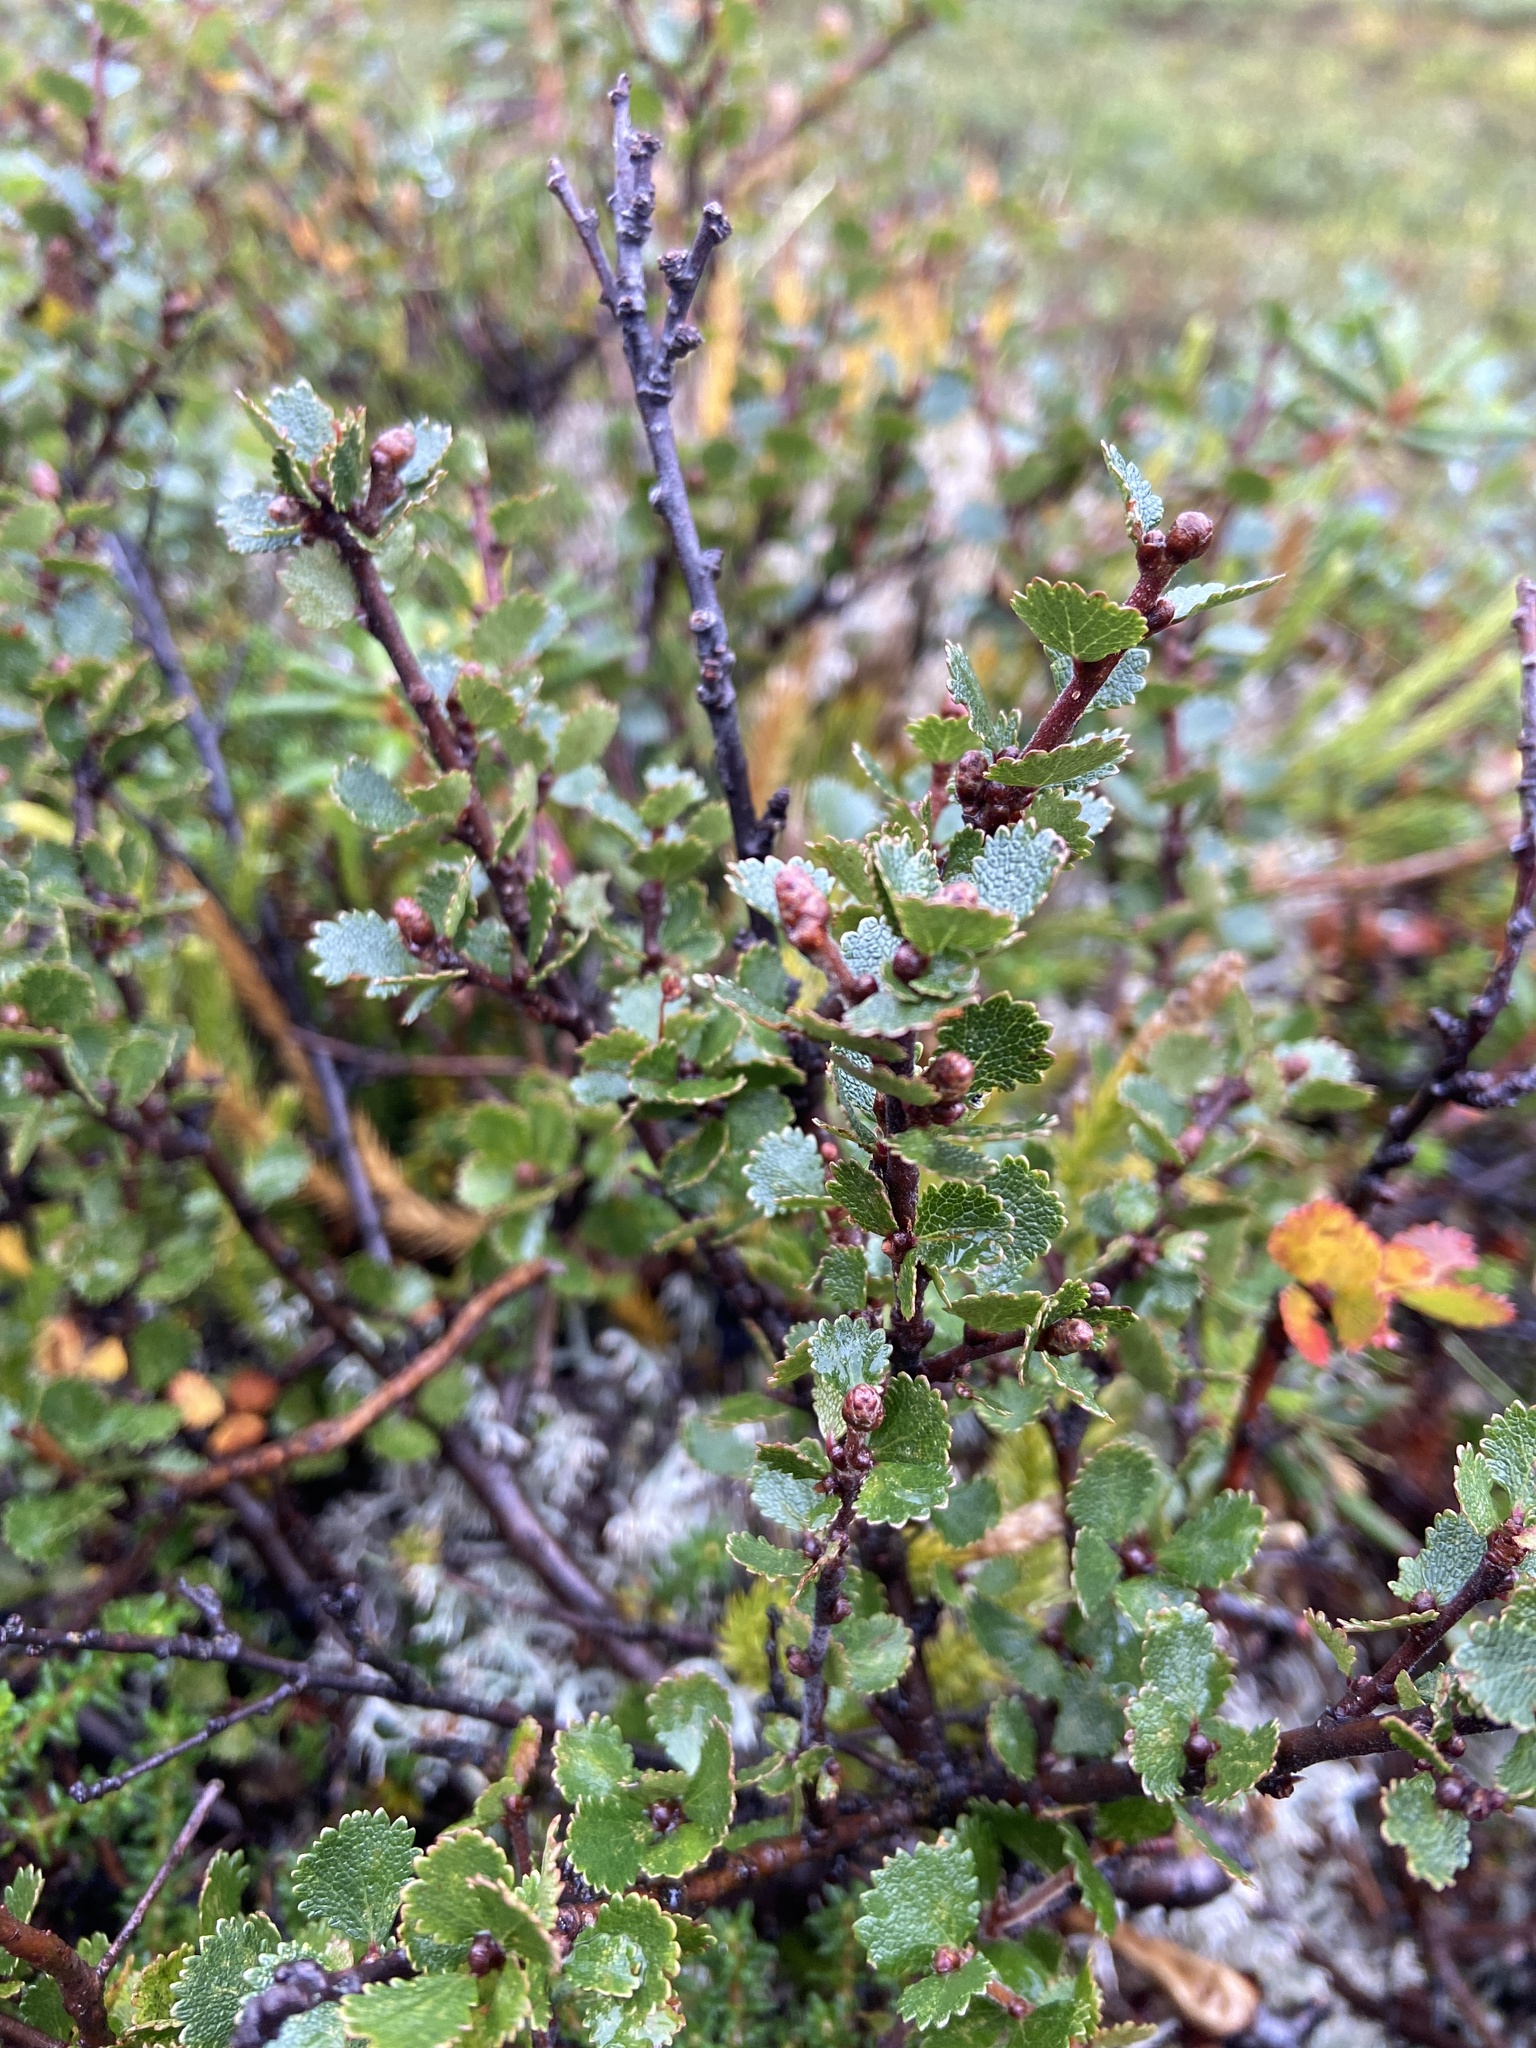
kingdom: Plantae
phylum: Tracheophyta
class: Magnoliopsida
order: Fagales
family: Betulaceae
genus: Betula
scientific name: Betula nana
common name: Arctic dwarf birch
